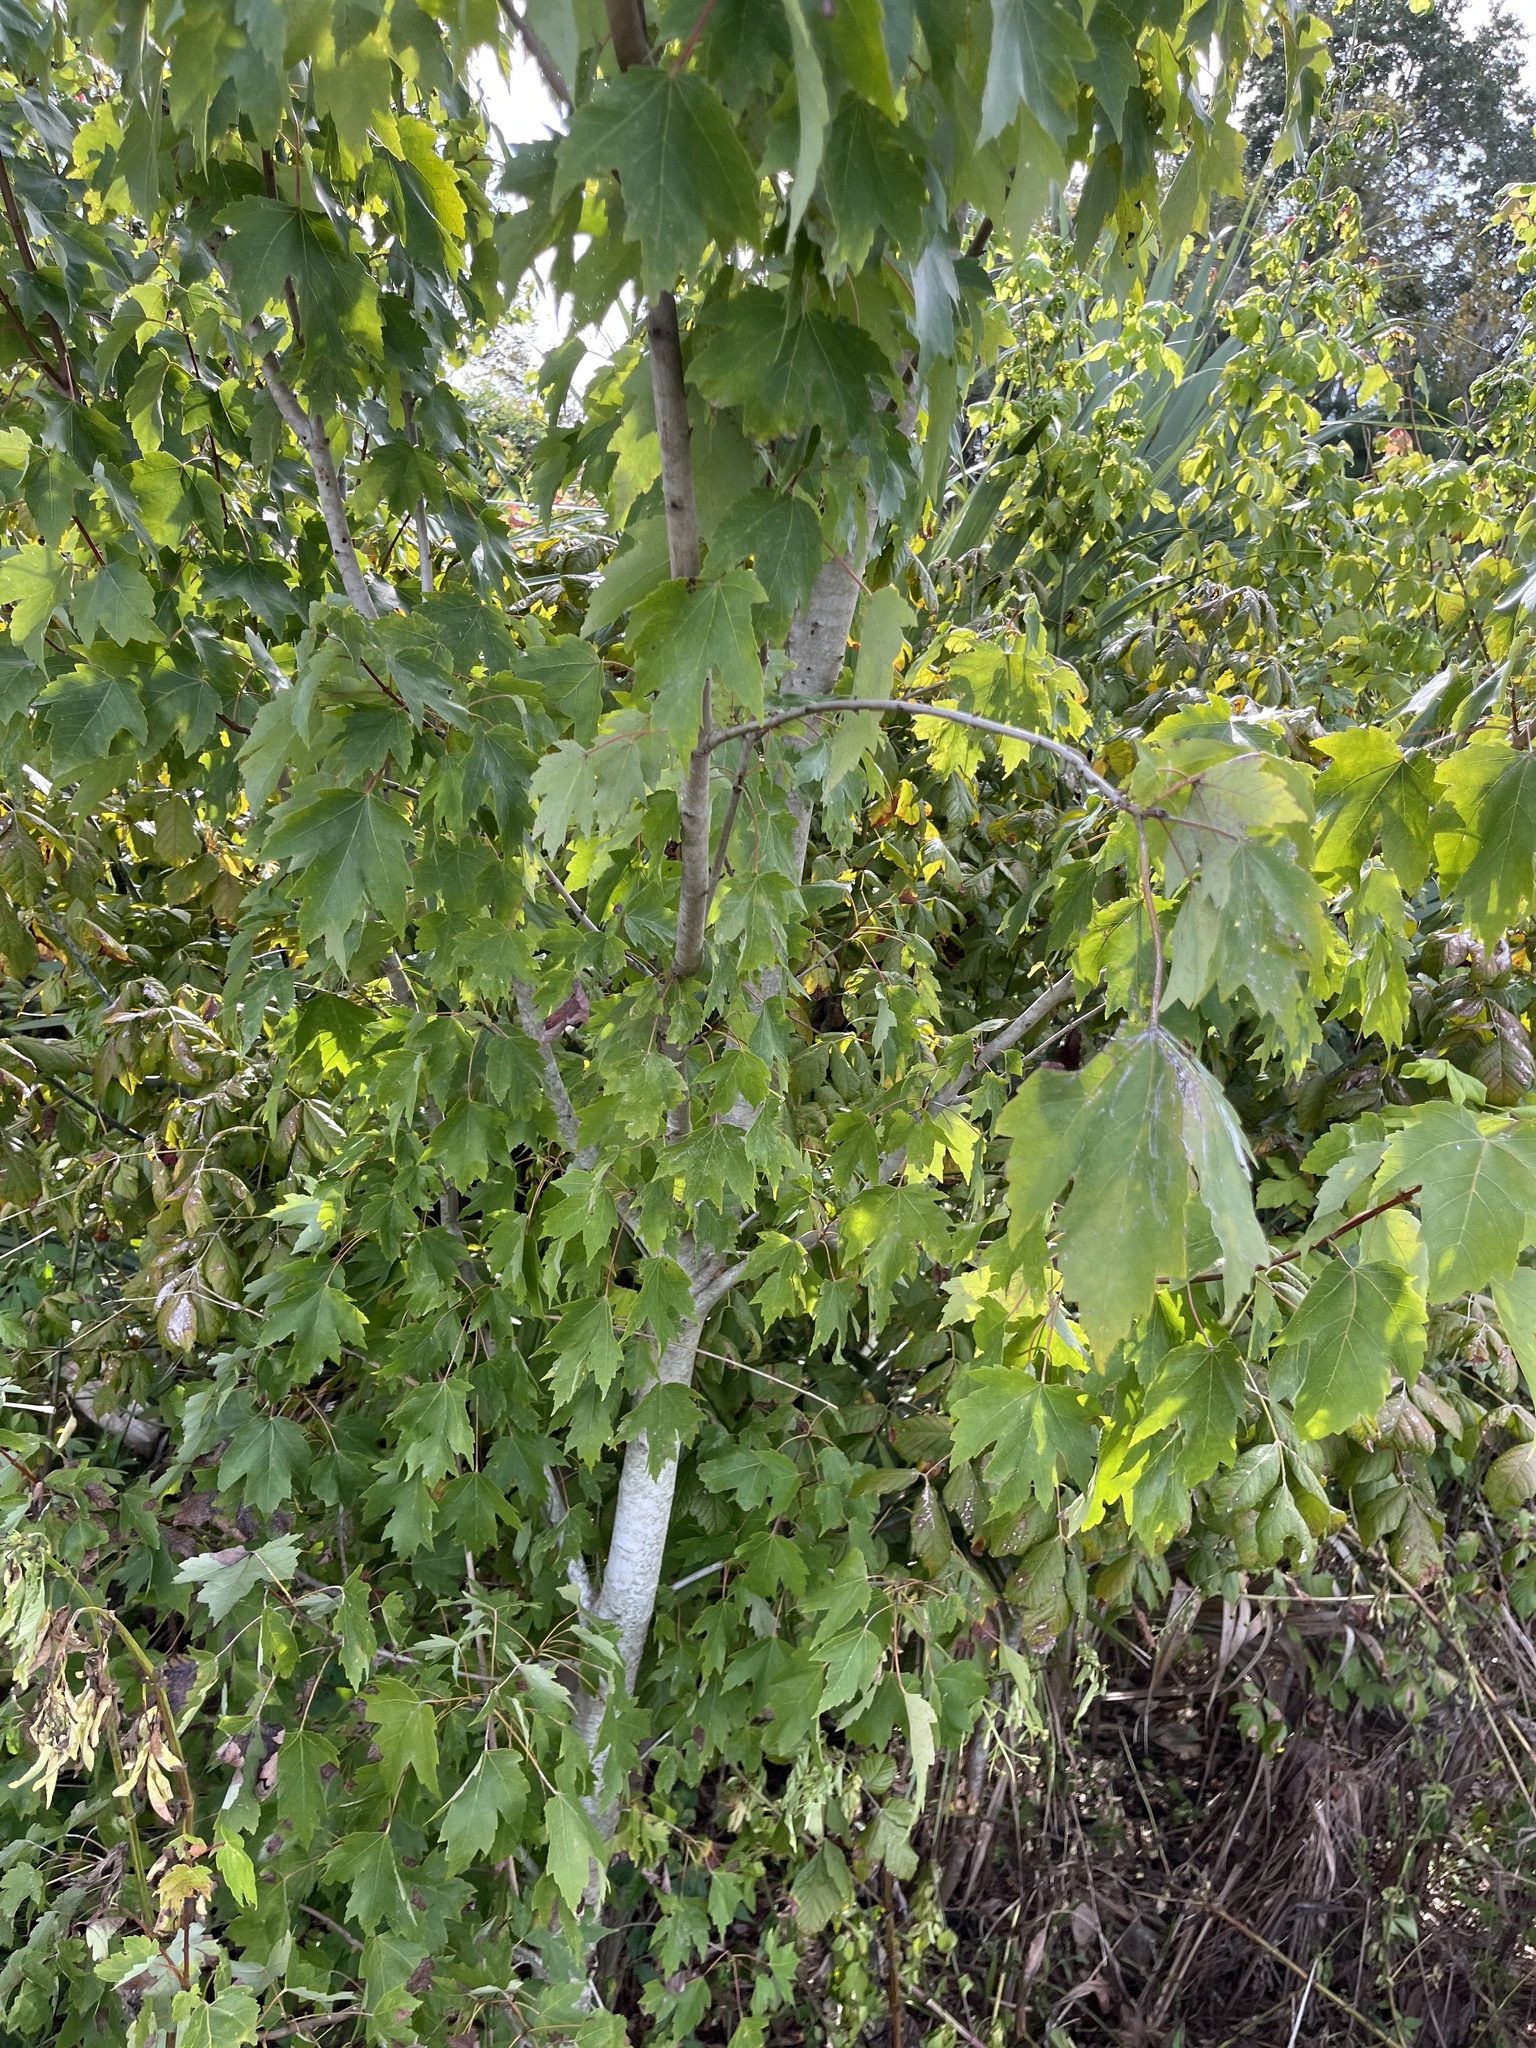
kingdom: Plantae
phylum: Tracheophyta
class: Magnoliopsida
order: Sapindales
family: Sapindaceae
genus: Acer
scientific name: Acer rubrum
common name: Red maple
